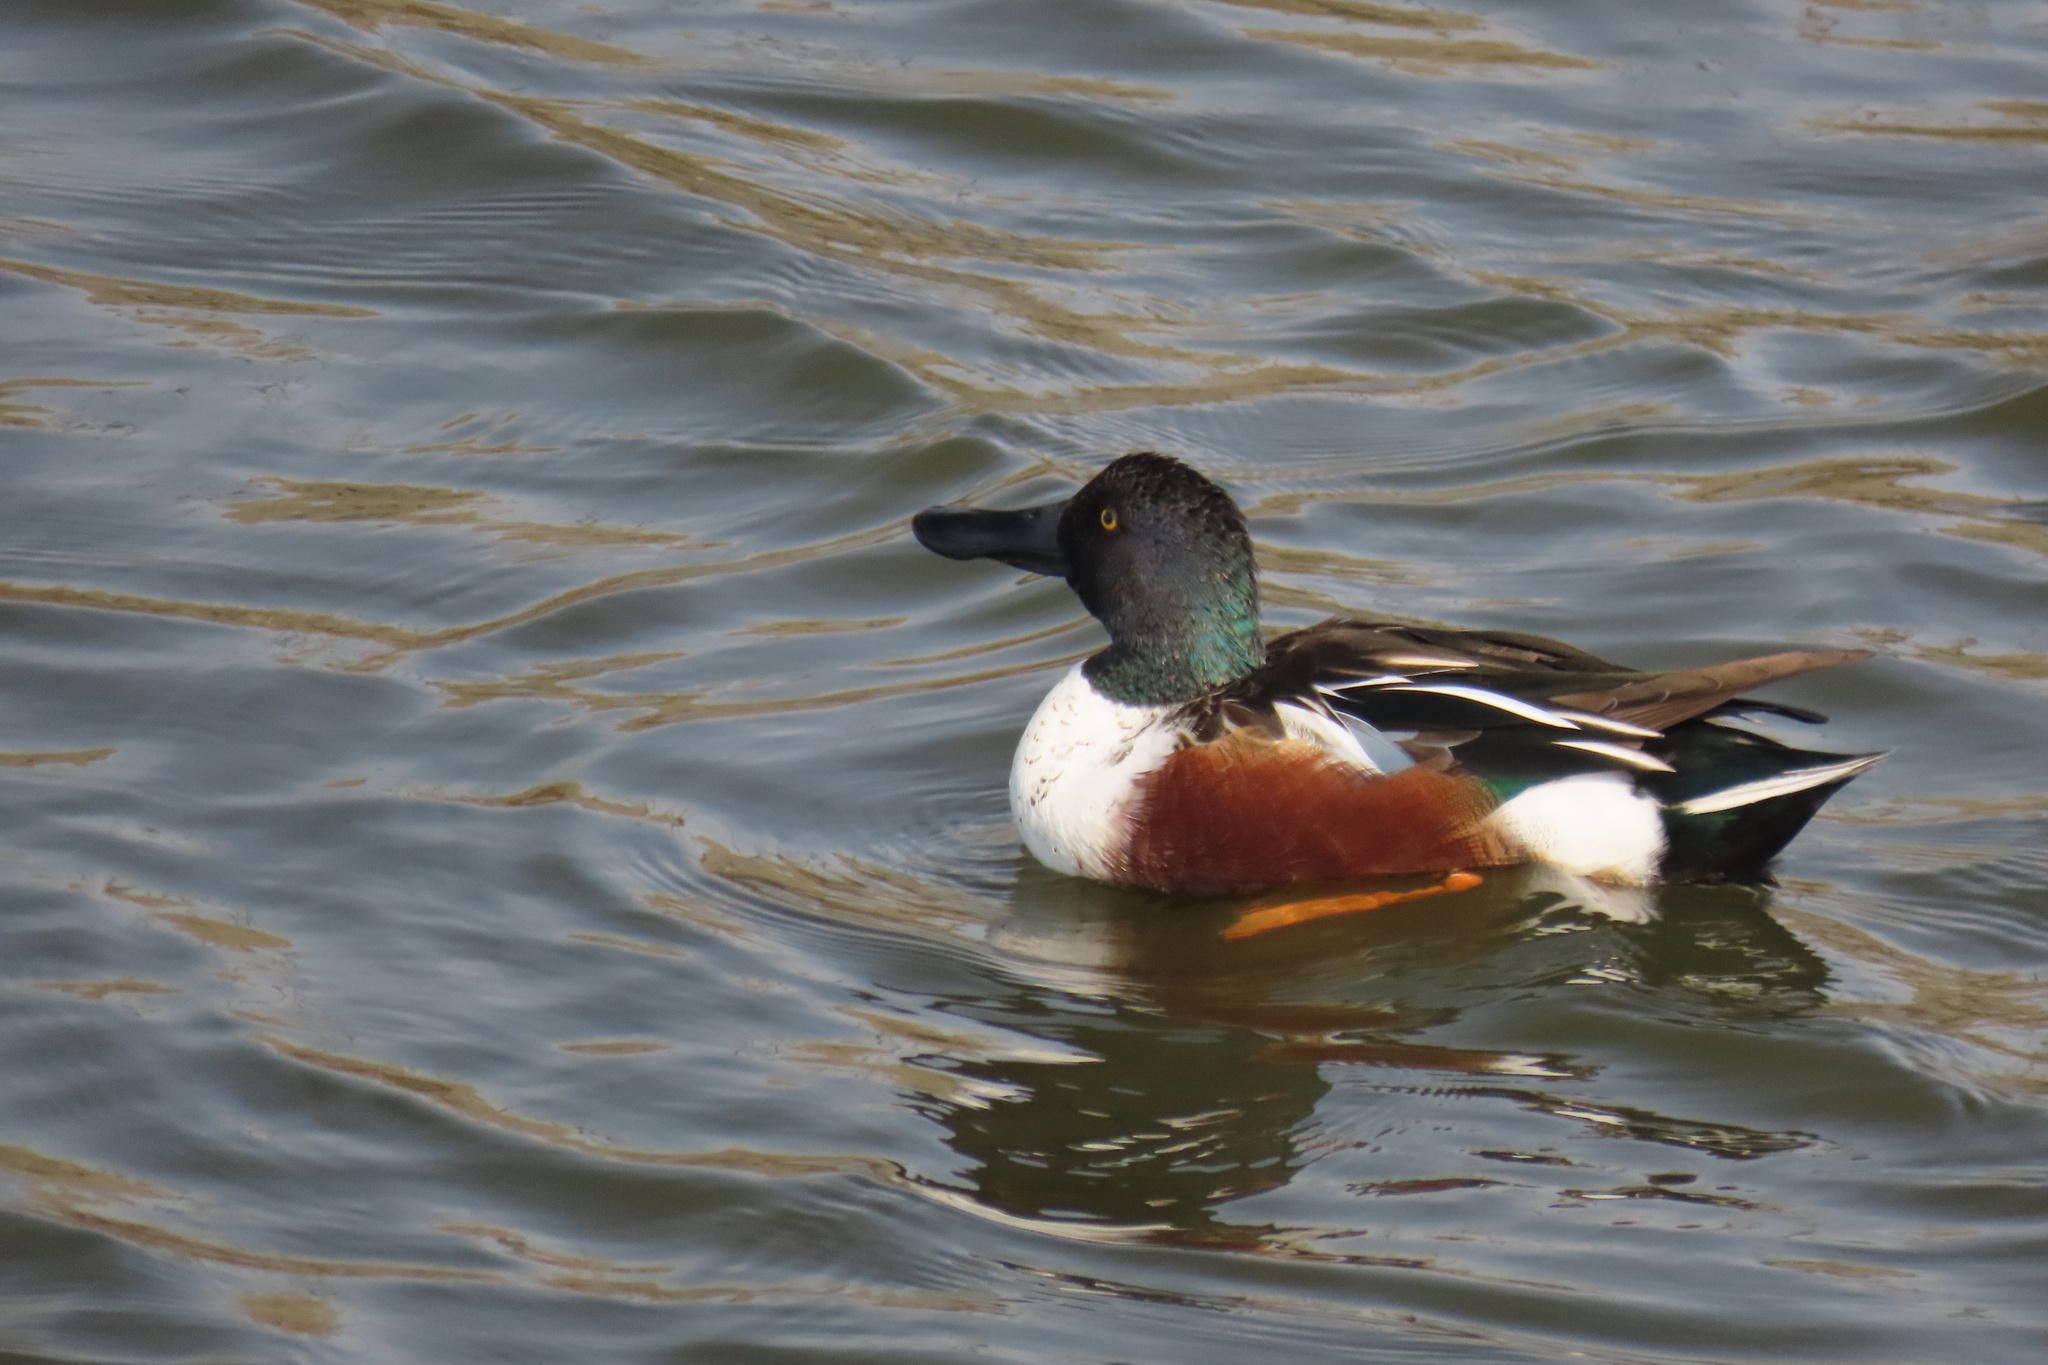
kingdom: Animalia
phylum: Chordata
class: Aves
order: Anseriformes
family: Anatidae
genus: Spatula
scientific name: Spatula clypeata
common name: Northern shoveler
